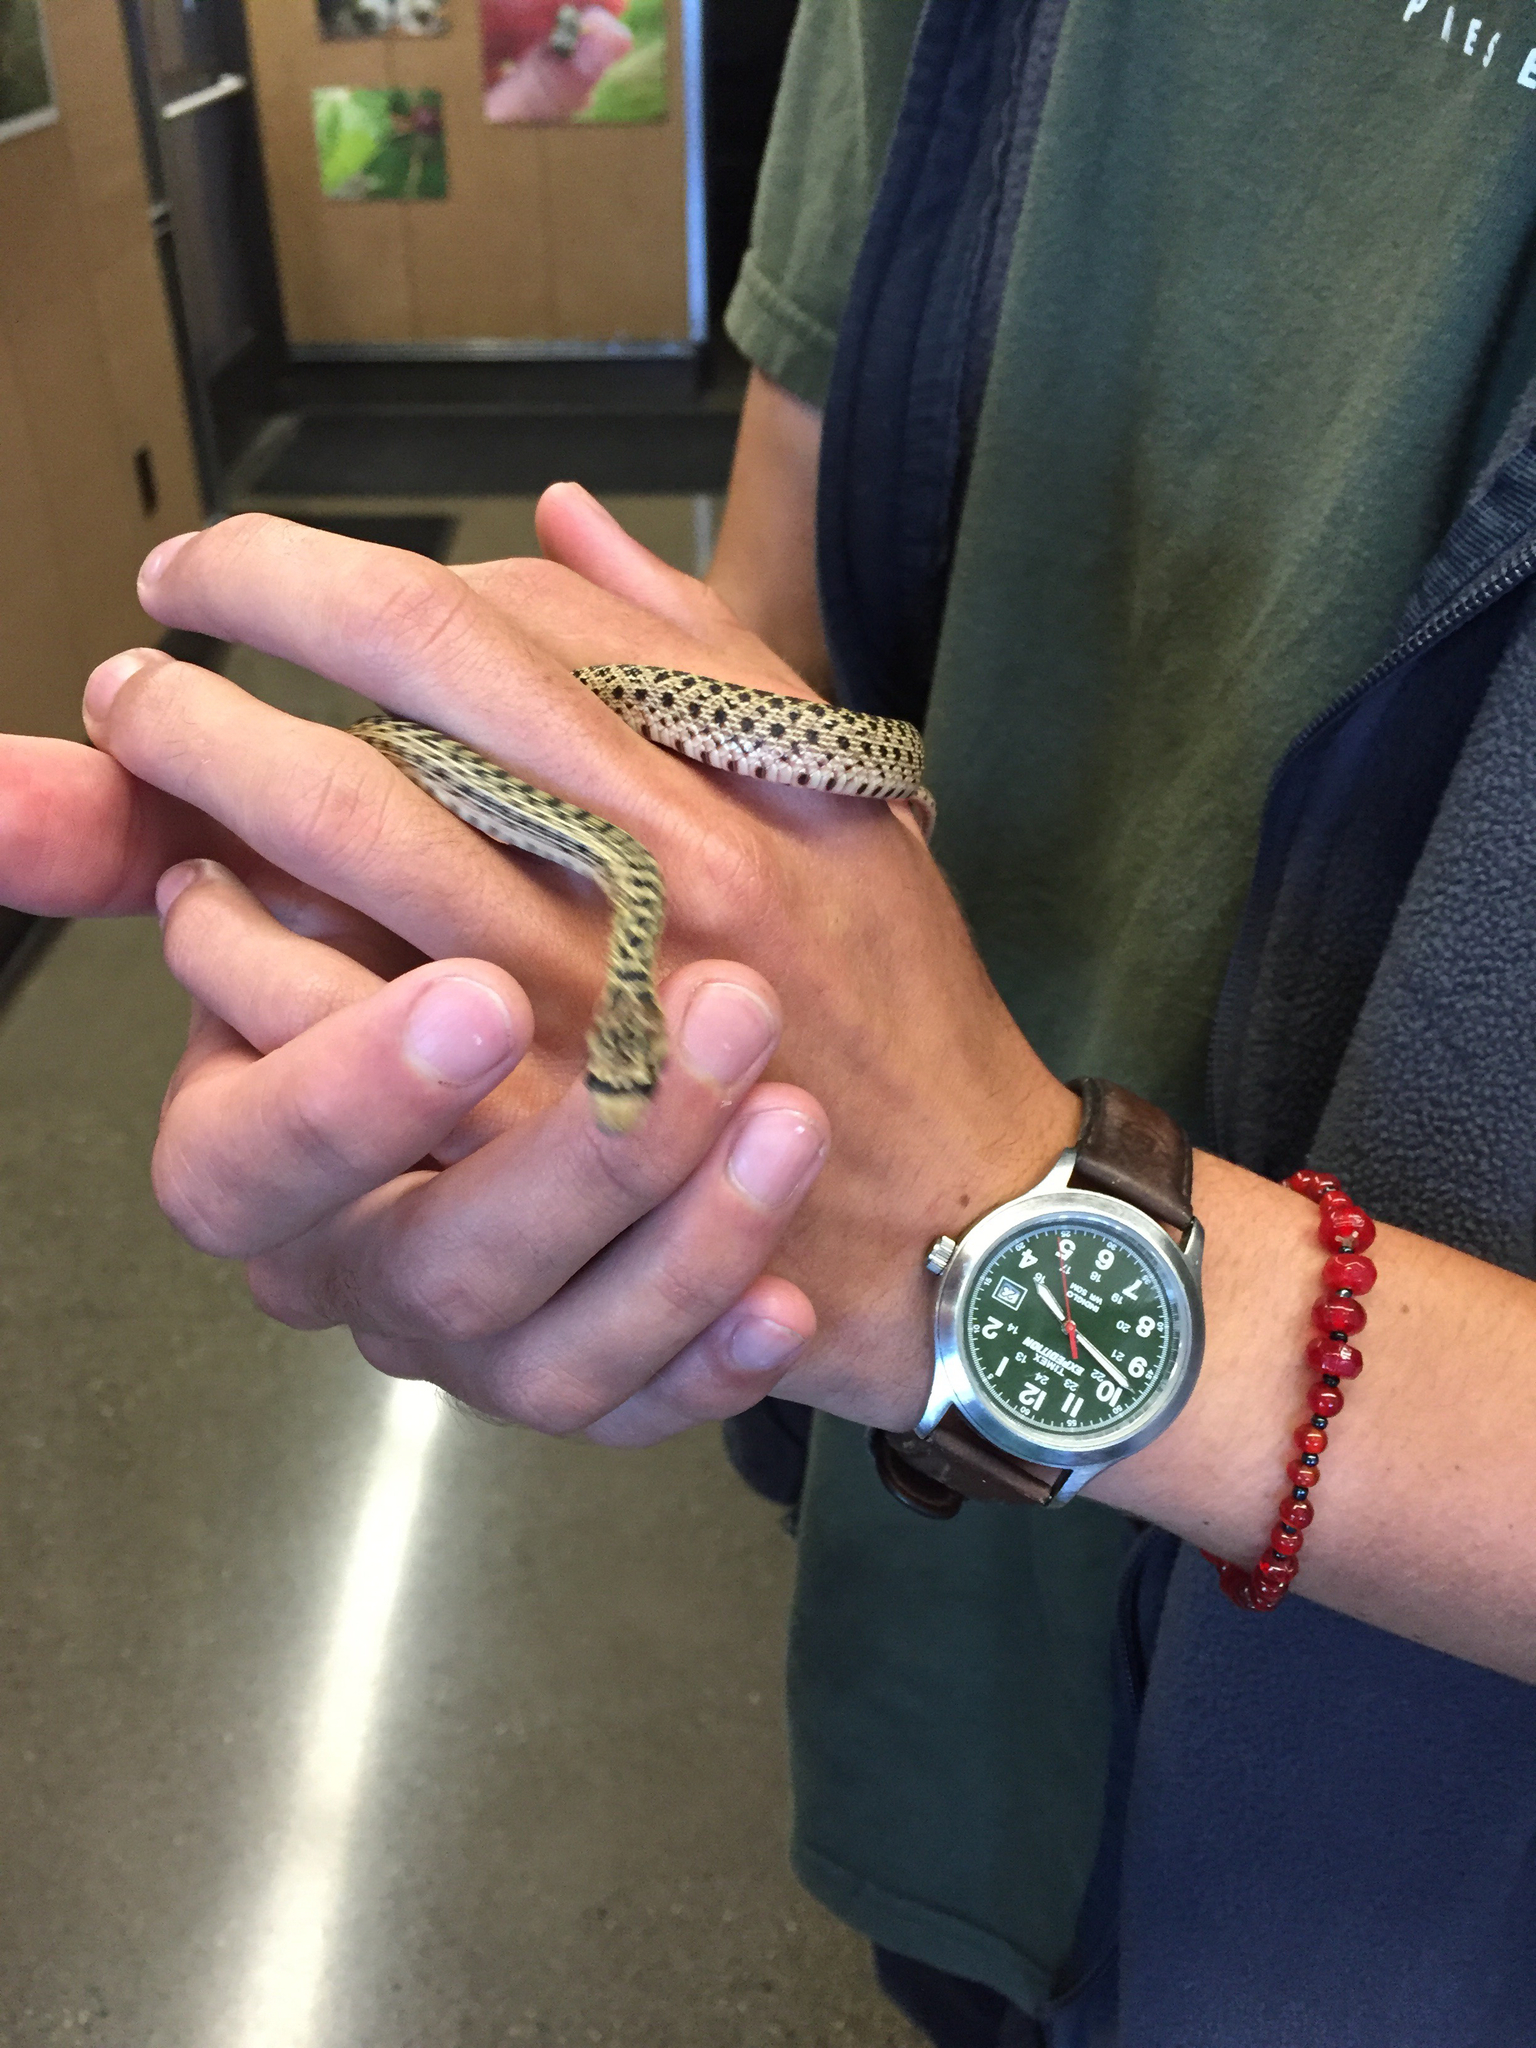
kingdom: Animalia
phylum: Chordata
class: Squamata
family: Colubridae
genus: Pituophis
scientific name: Pituophis catenifer
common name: Gopher snake
